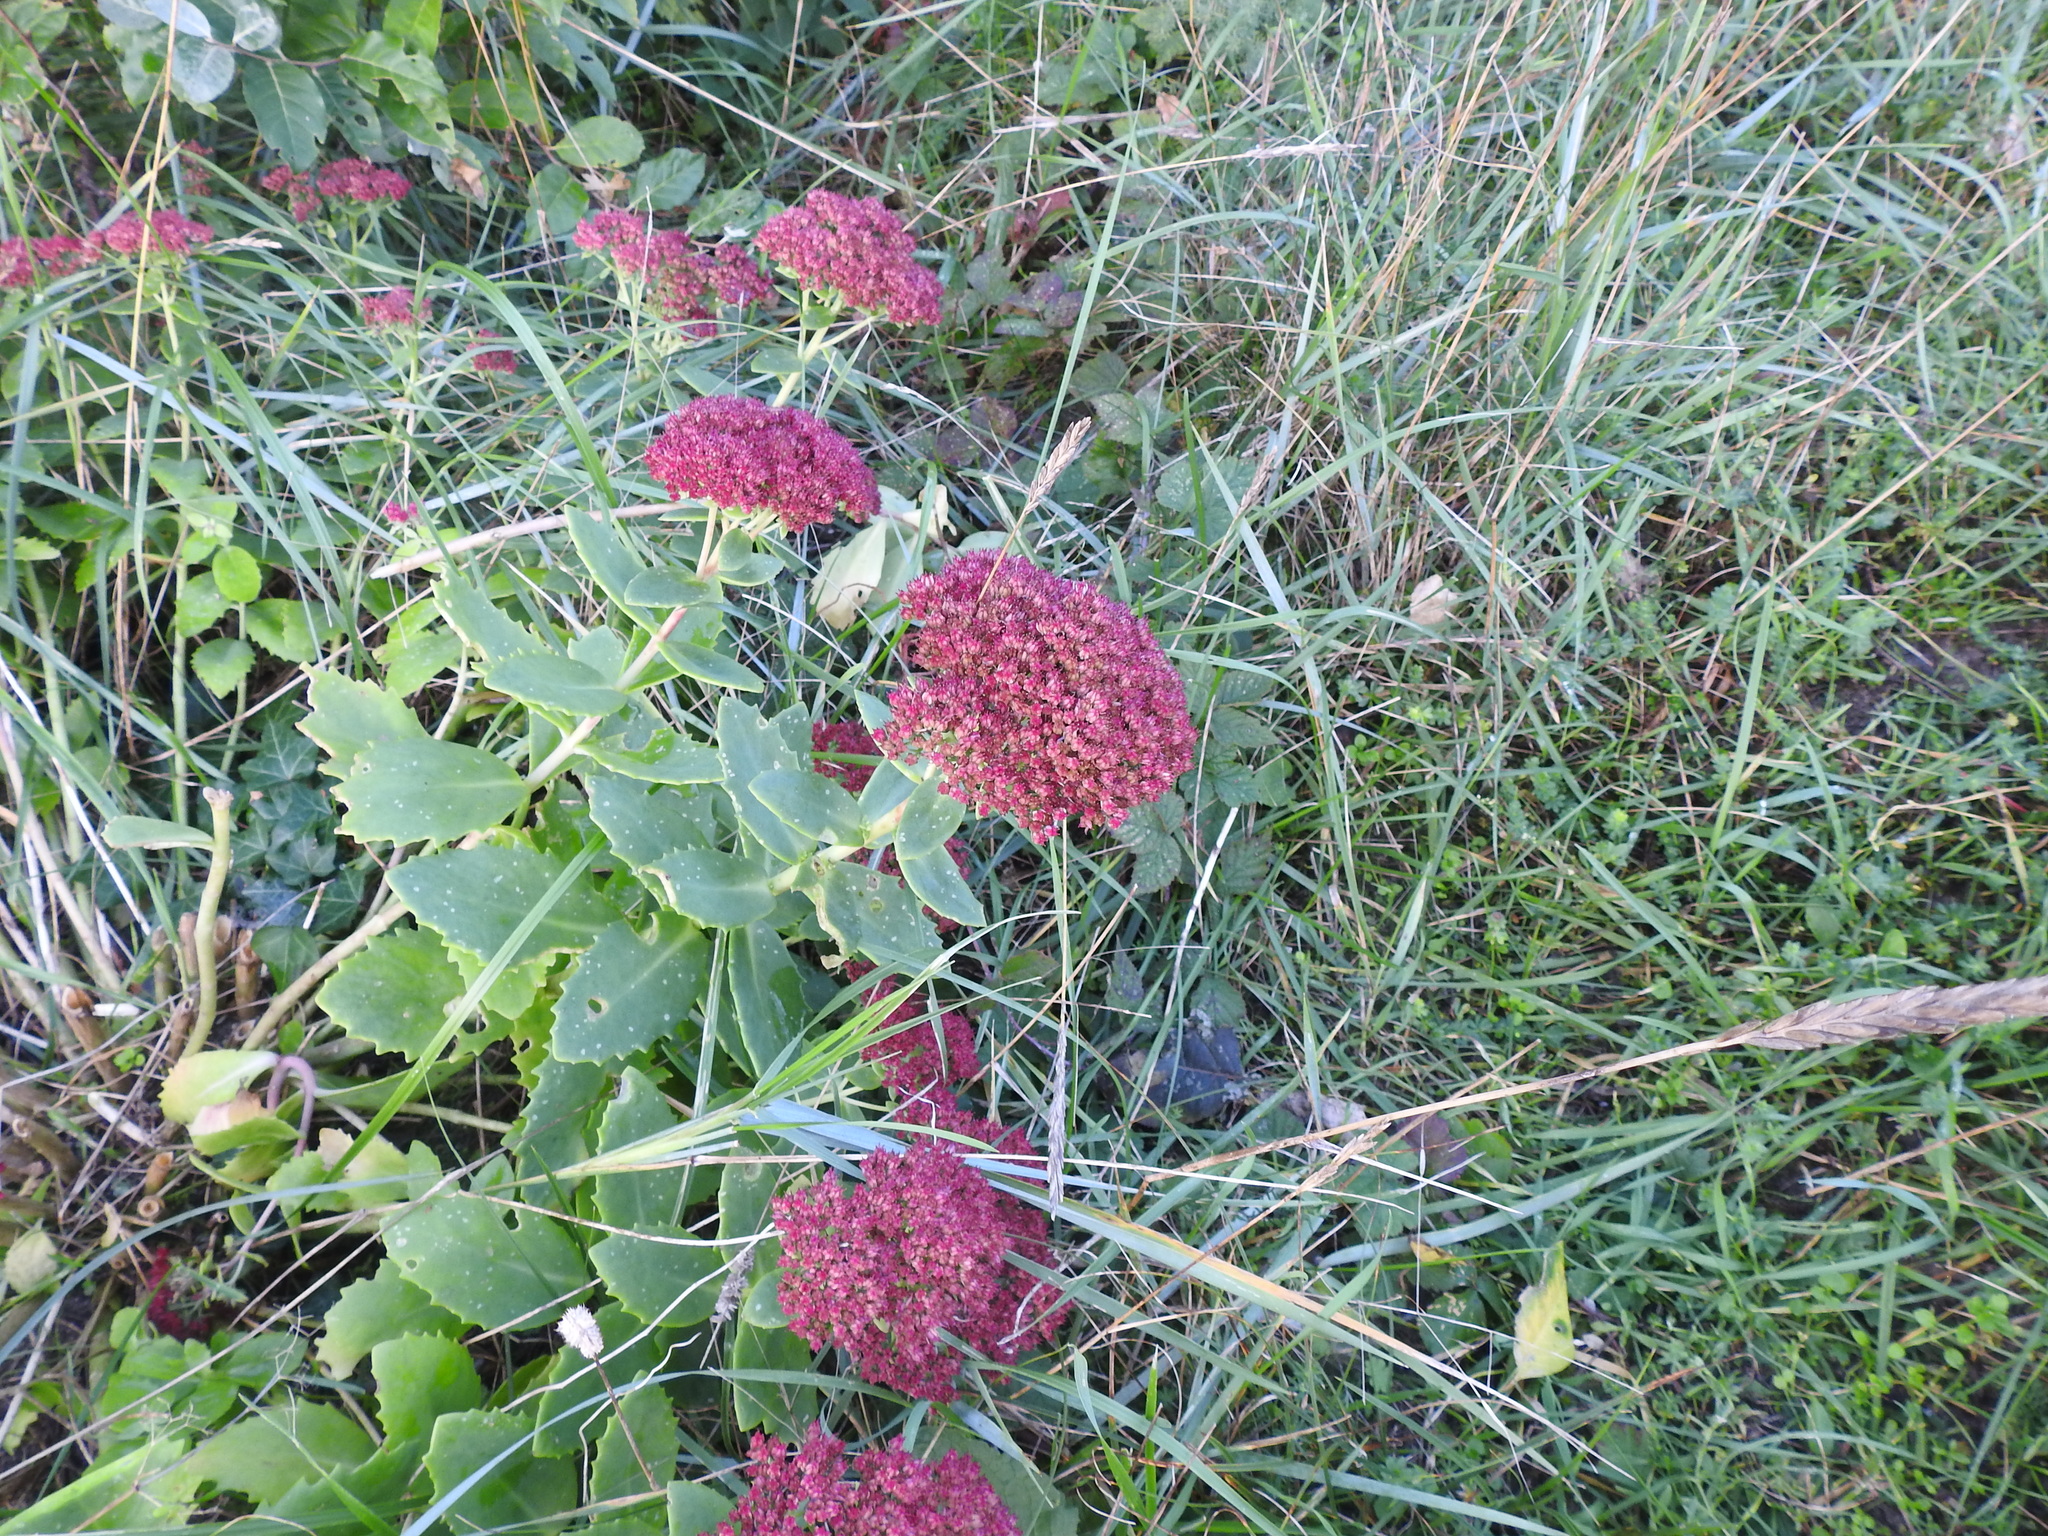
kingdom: Plantae
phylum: Tracheophyta
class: Magnoliopsida
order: Saxifragales
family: Crassulaceae
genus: Hylotelephium
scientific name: Hylotelephium telephium
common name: Live-forever
